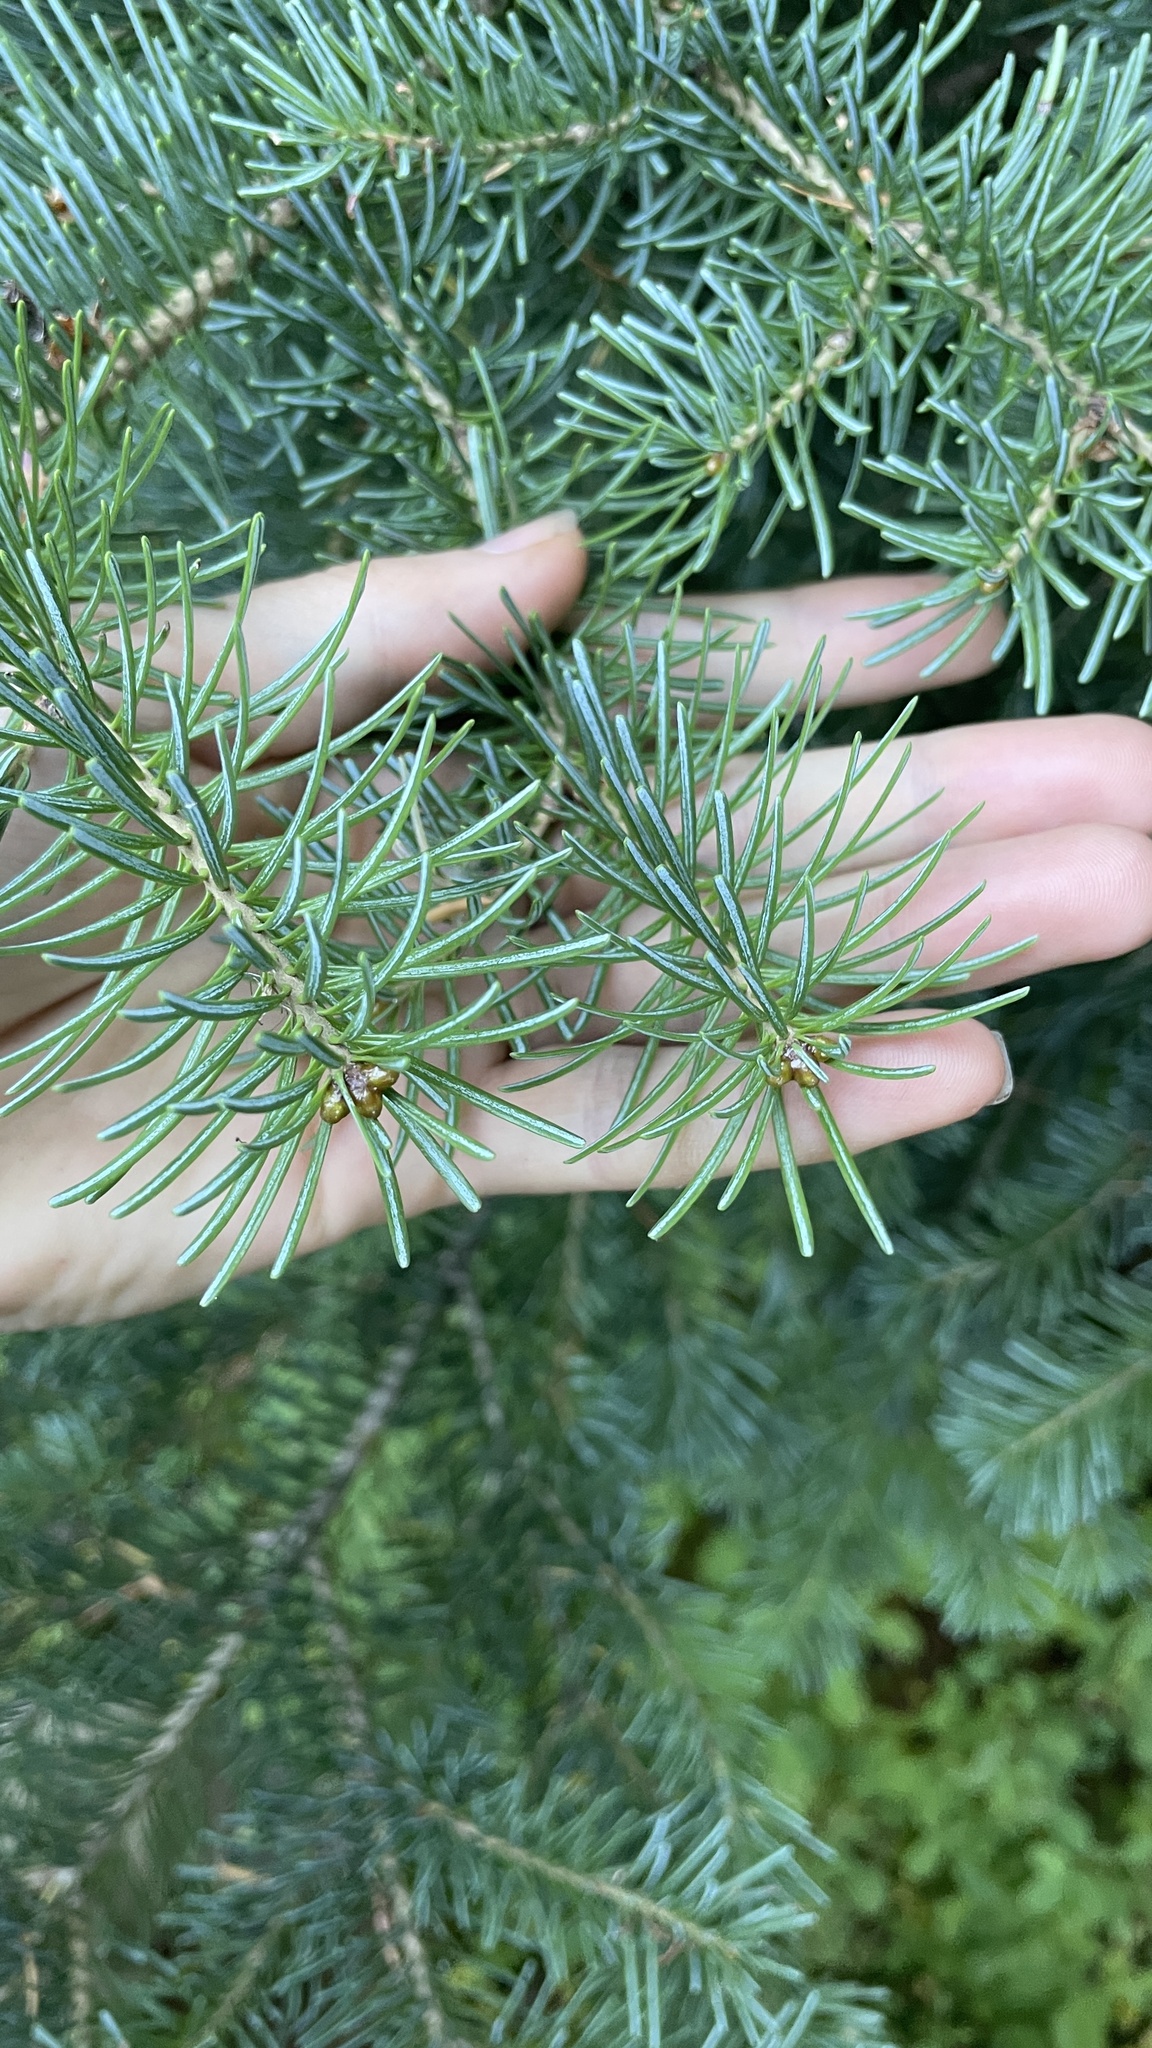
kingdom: Plantae
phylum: Tracheophyta
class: Pinopsida
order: Pinales
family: Pinaceae
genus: Abies
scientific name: Abies lasiocarpa
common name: Subalpine fir
